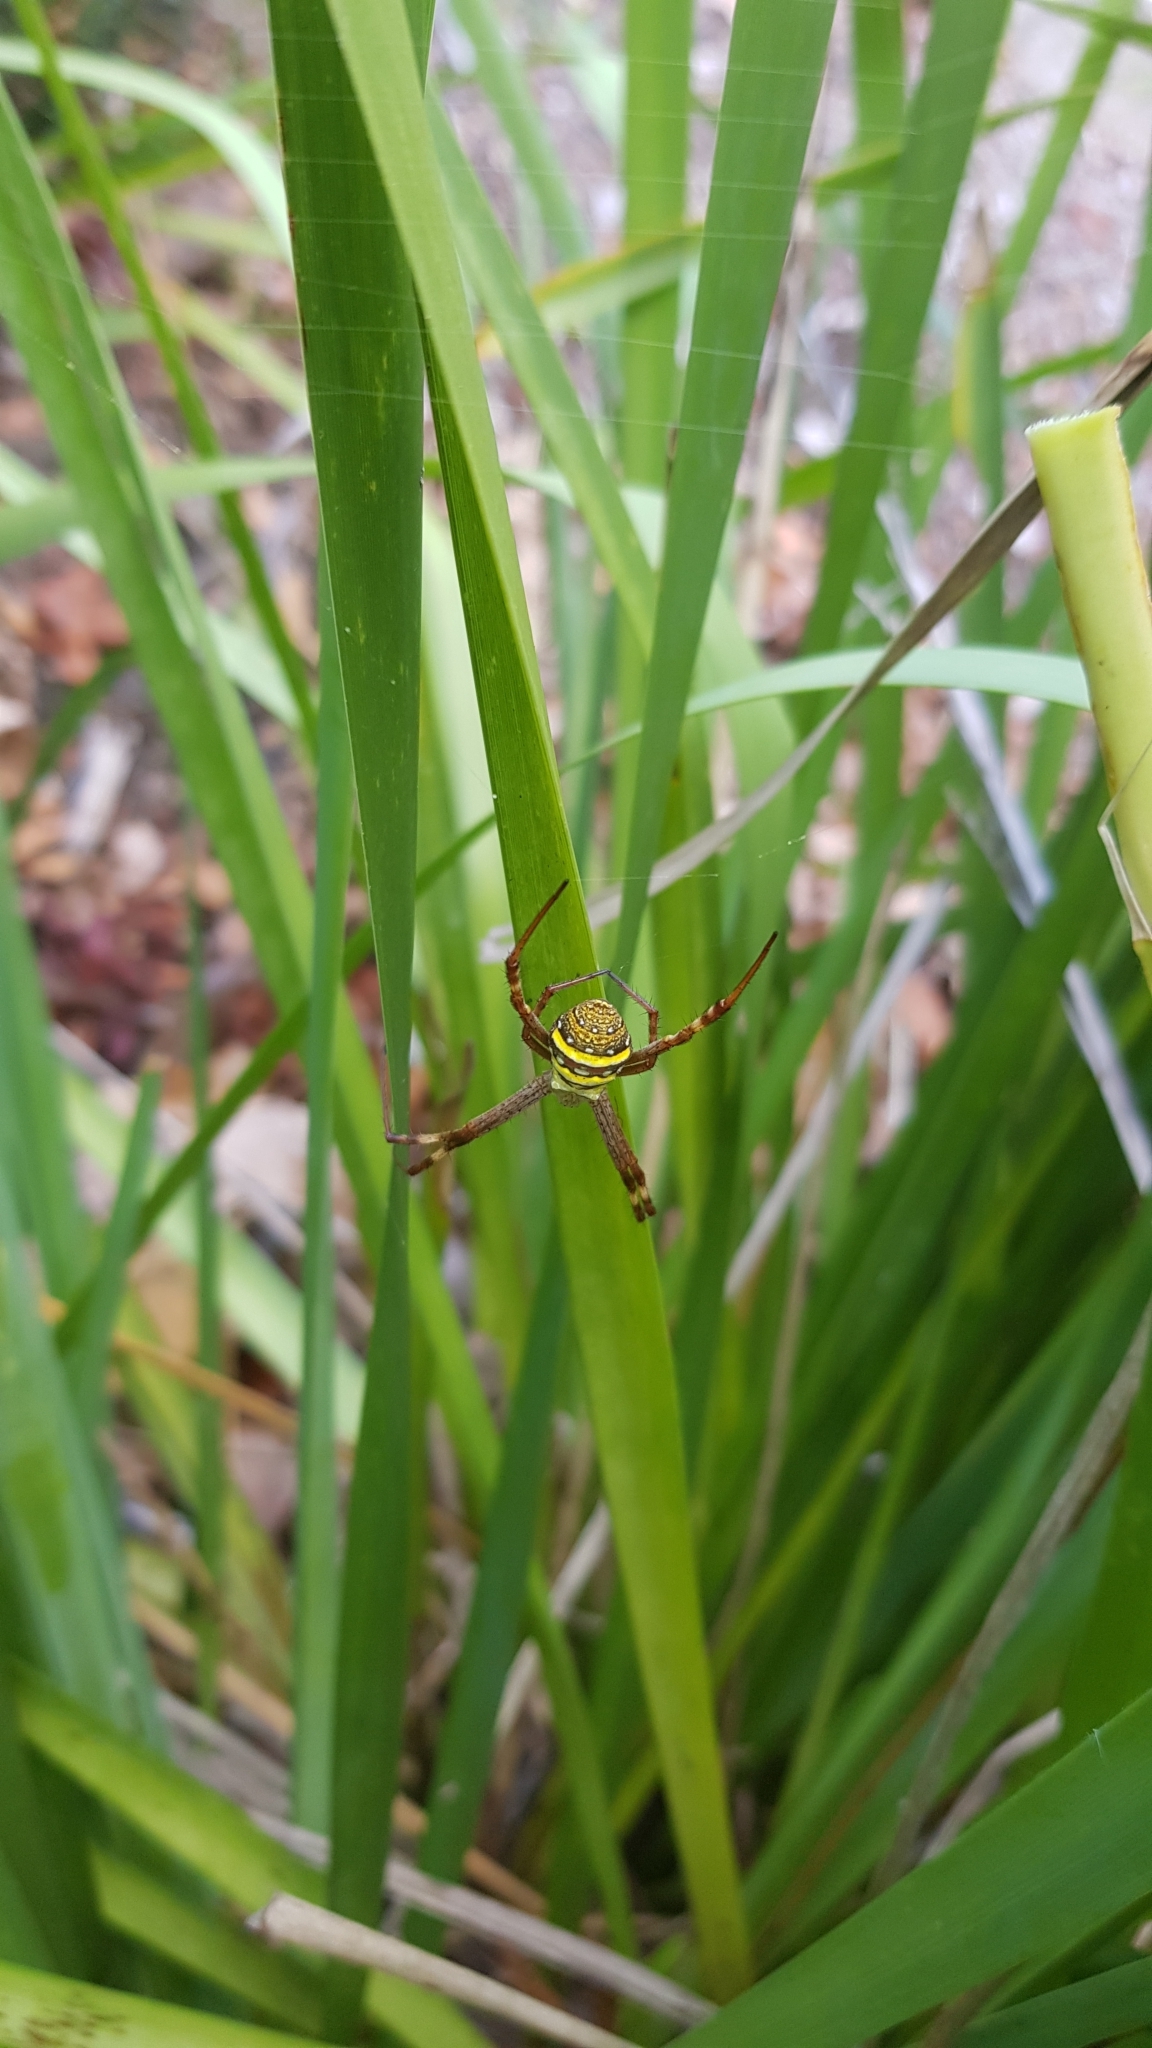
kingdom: Animalia
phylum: Arthropoda
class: Arachnida
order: Araneae
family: Araneidae
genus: Argiope
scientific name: Argiope keyserlingi
